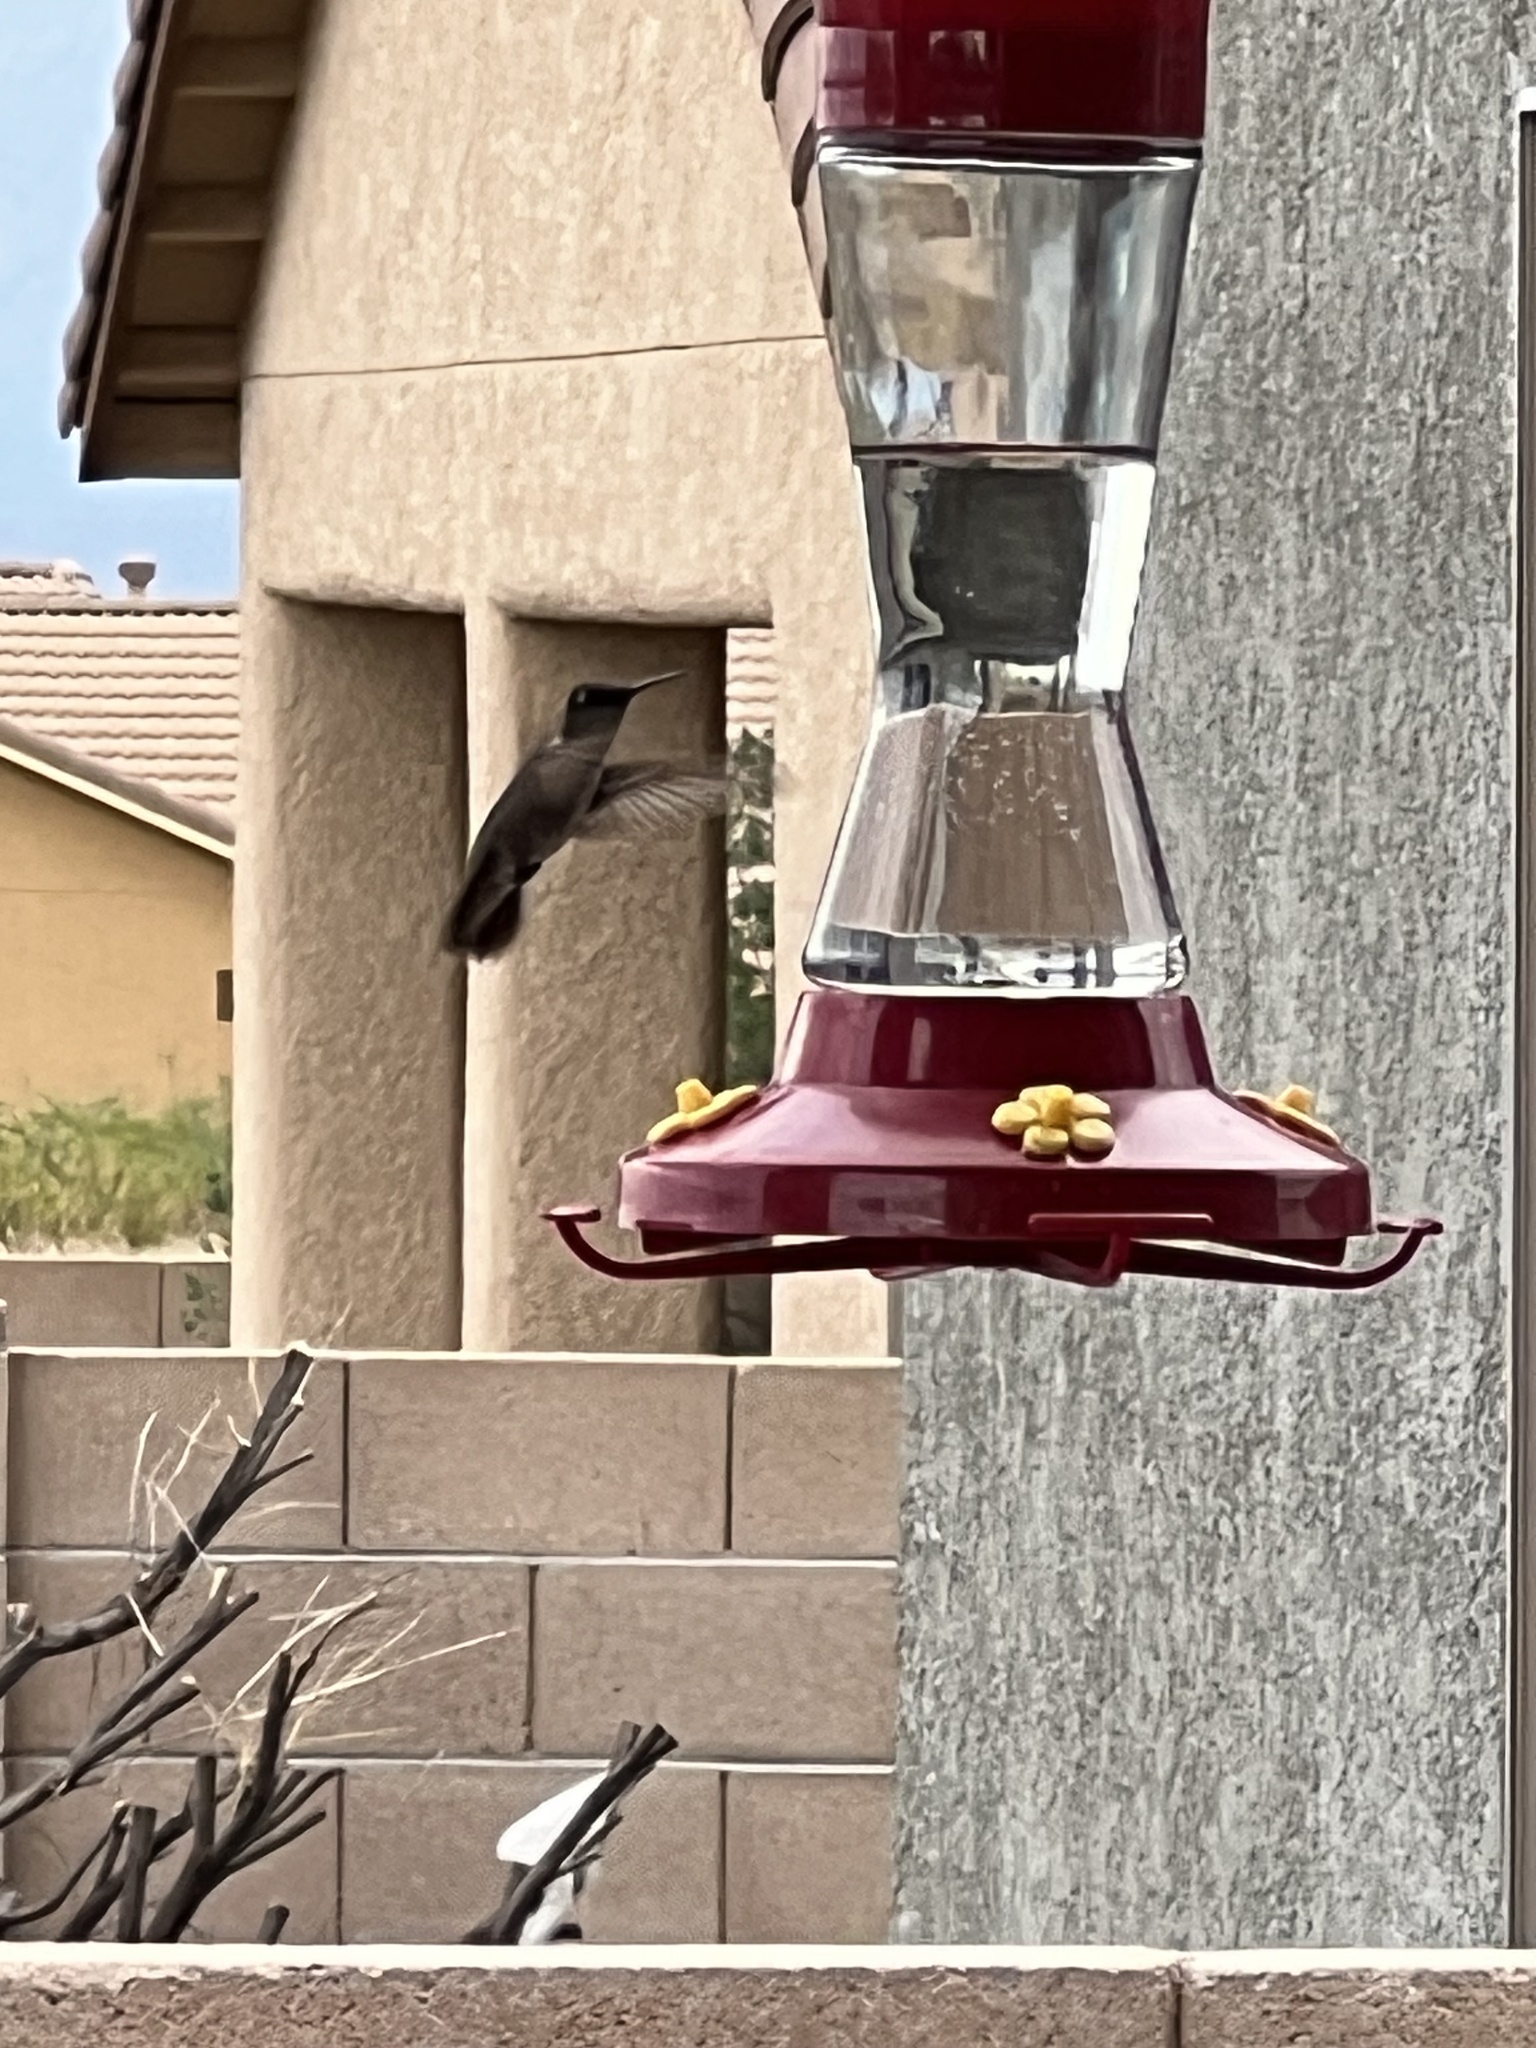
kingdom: Animalia
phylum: Chordata
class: Aves
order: Apodiformes
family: Trochilidae
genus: Archilochus
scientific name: Archilochus alexandri
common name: Black-chinned hummingbird
